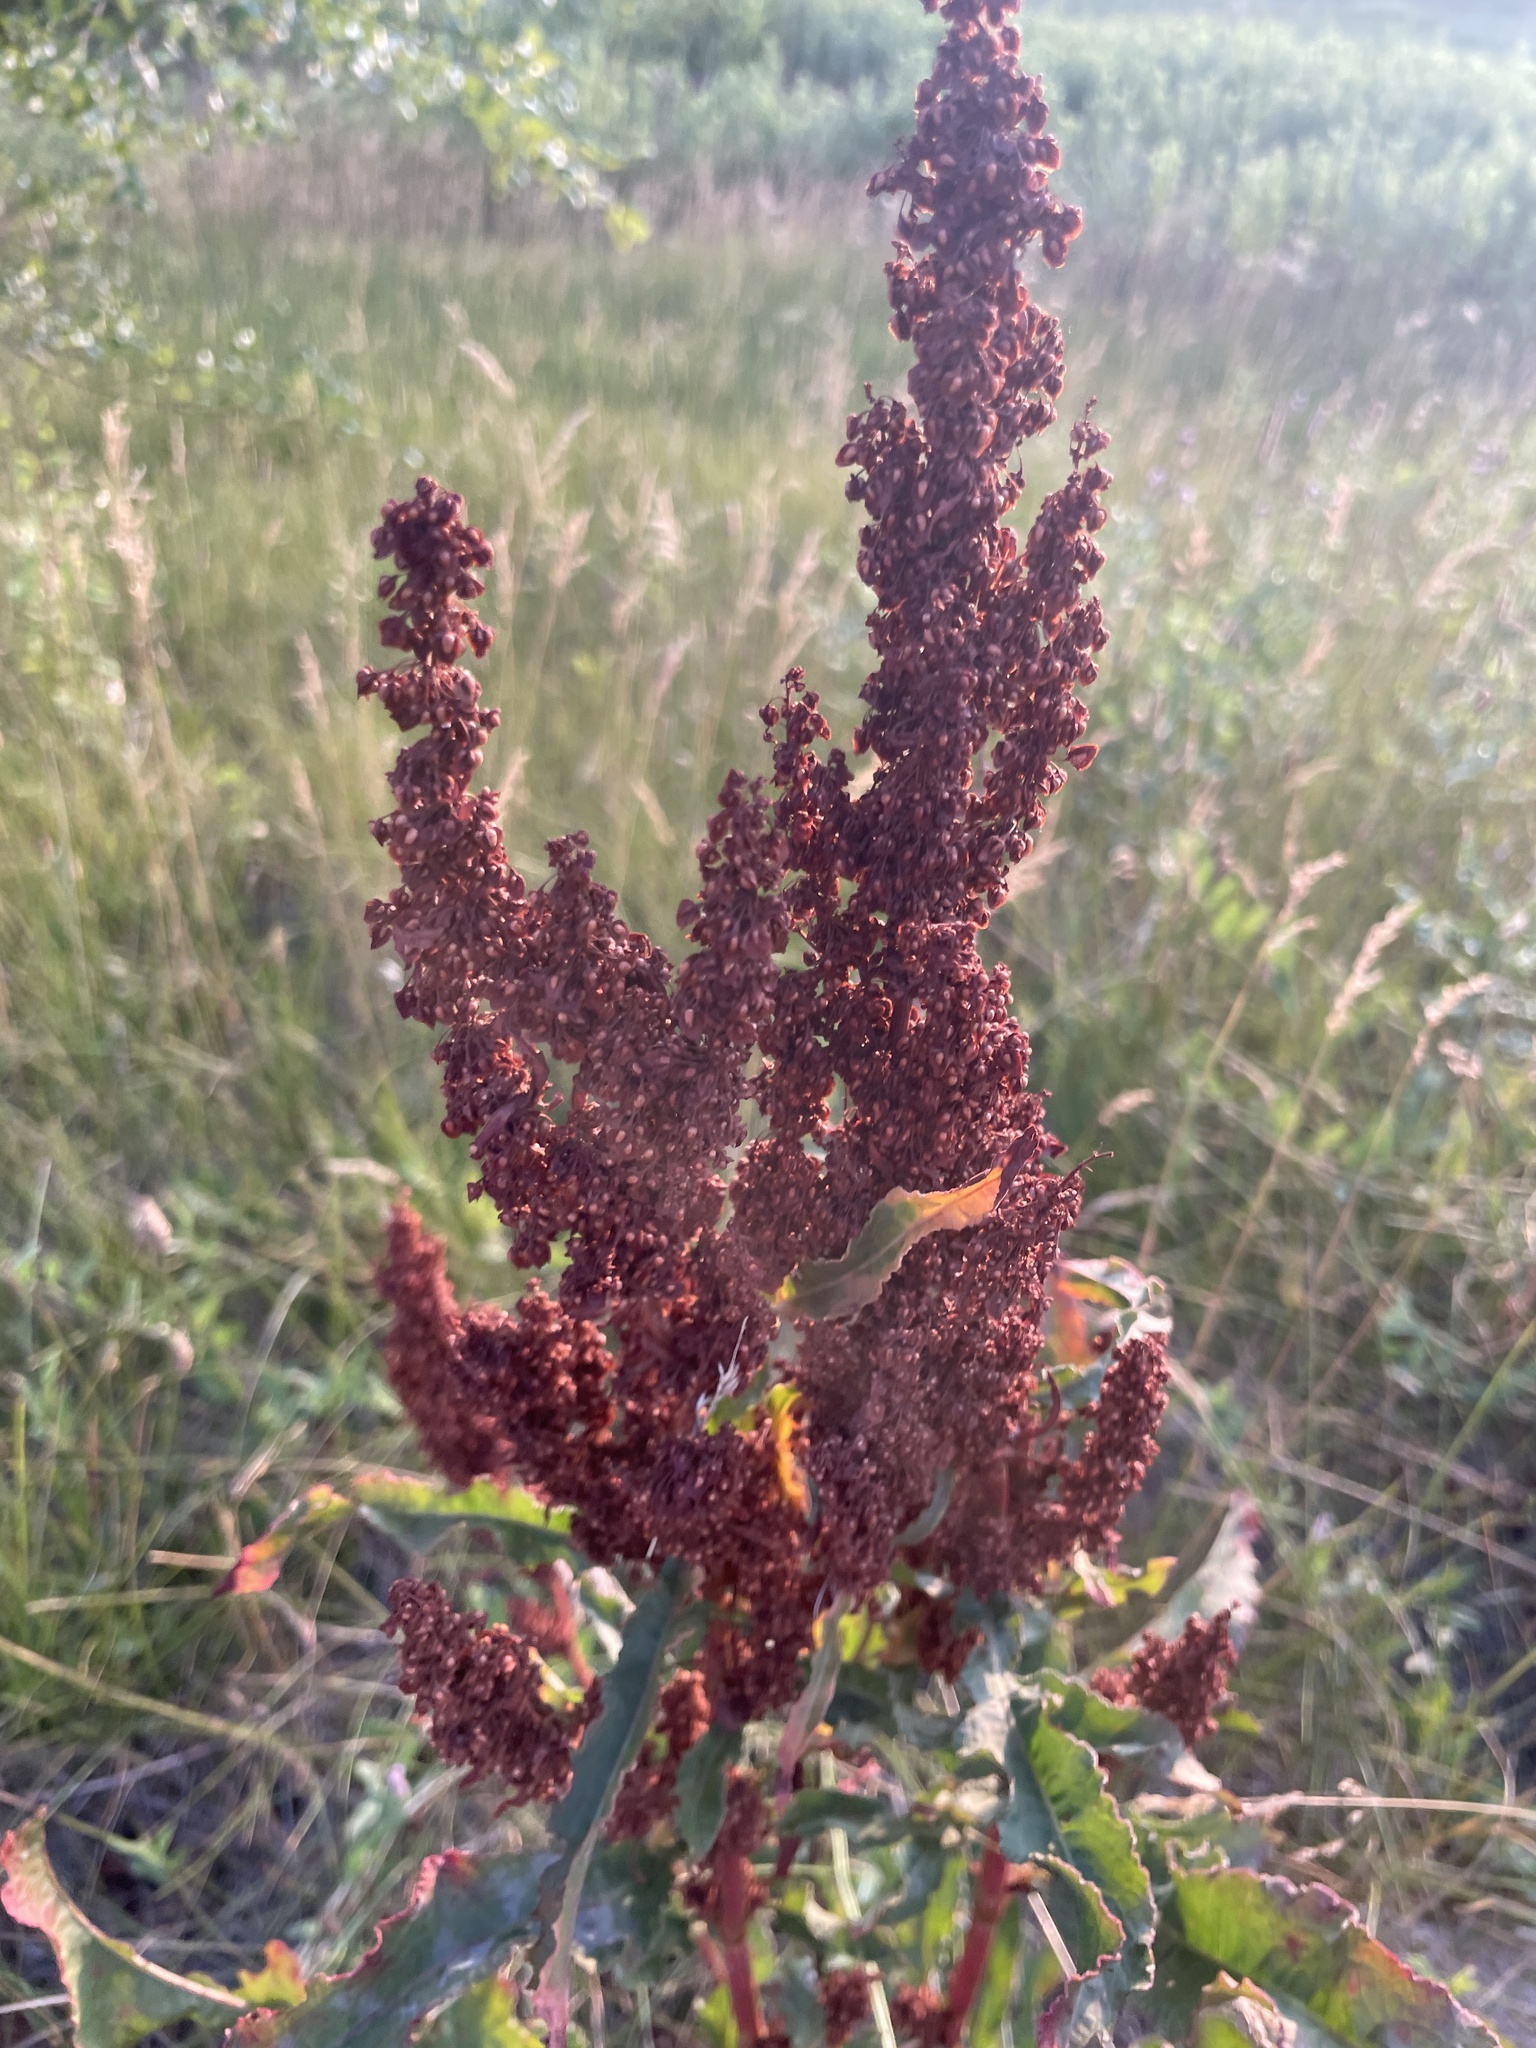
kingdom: Plantae
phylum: Tracheophyta
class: Magnoliopsida
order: Caryophyllales
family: Polygonaceae
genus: Rumex
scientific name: Rumex crispus
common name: Curled dock
